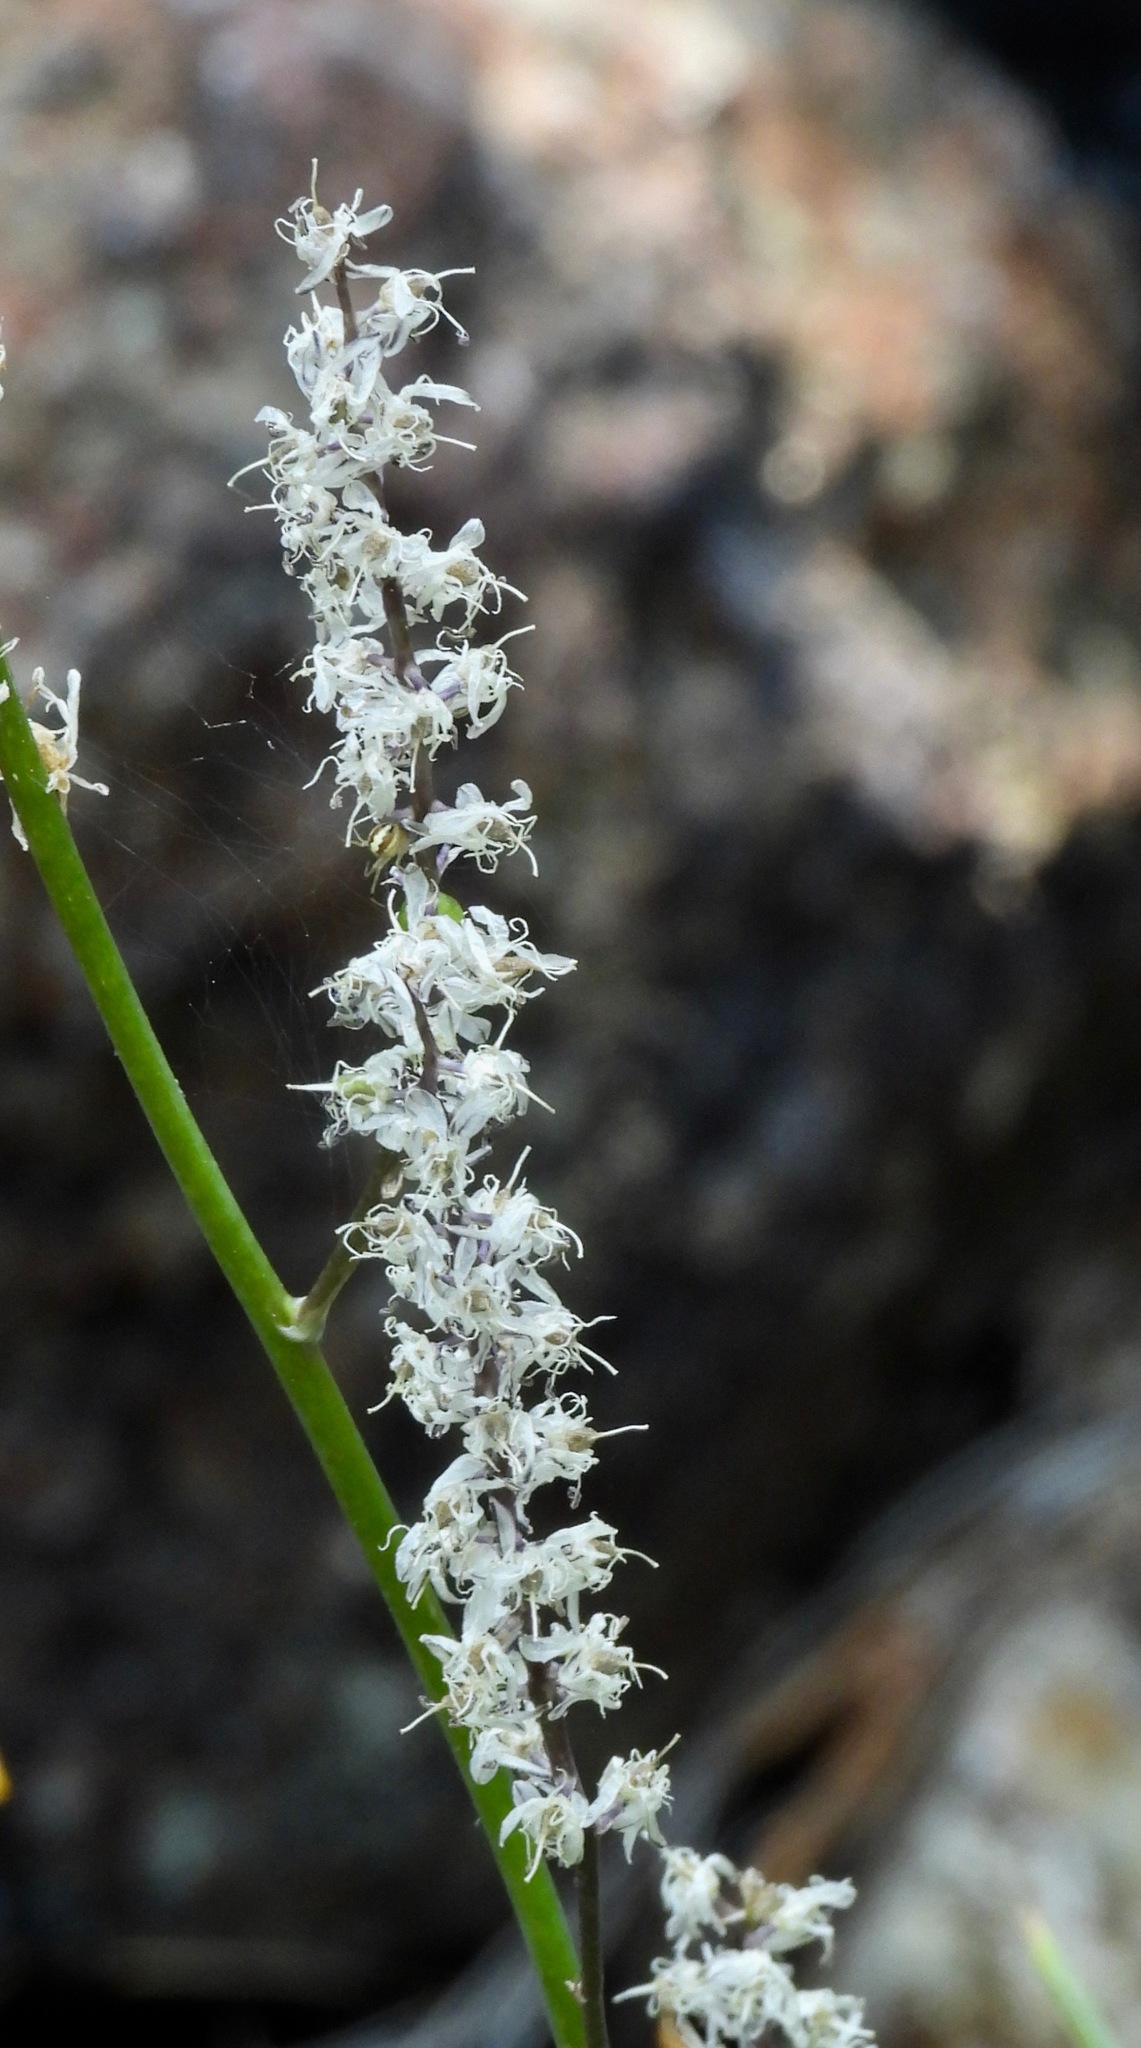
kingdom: Plantae
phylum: Tracheophyta
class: Liliopsida
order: Asparagales
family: Asparagaceae
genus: Hastingsia
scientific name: Hastingsia alba
